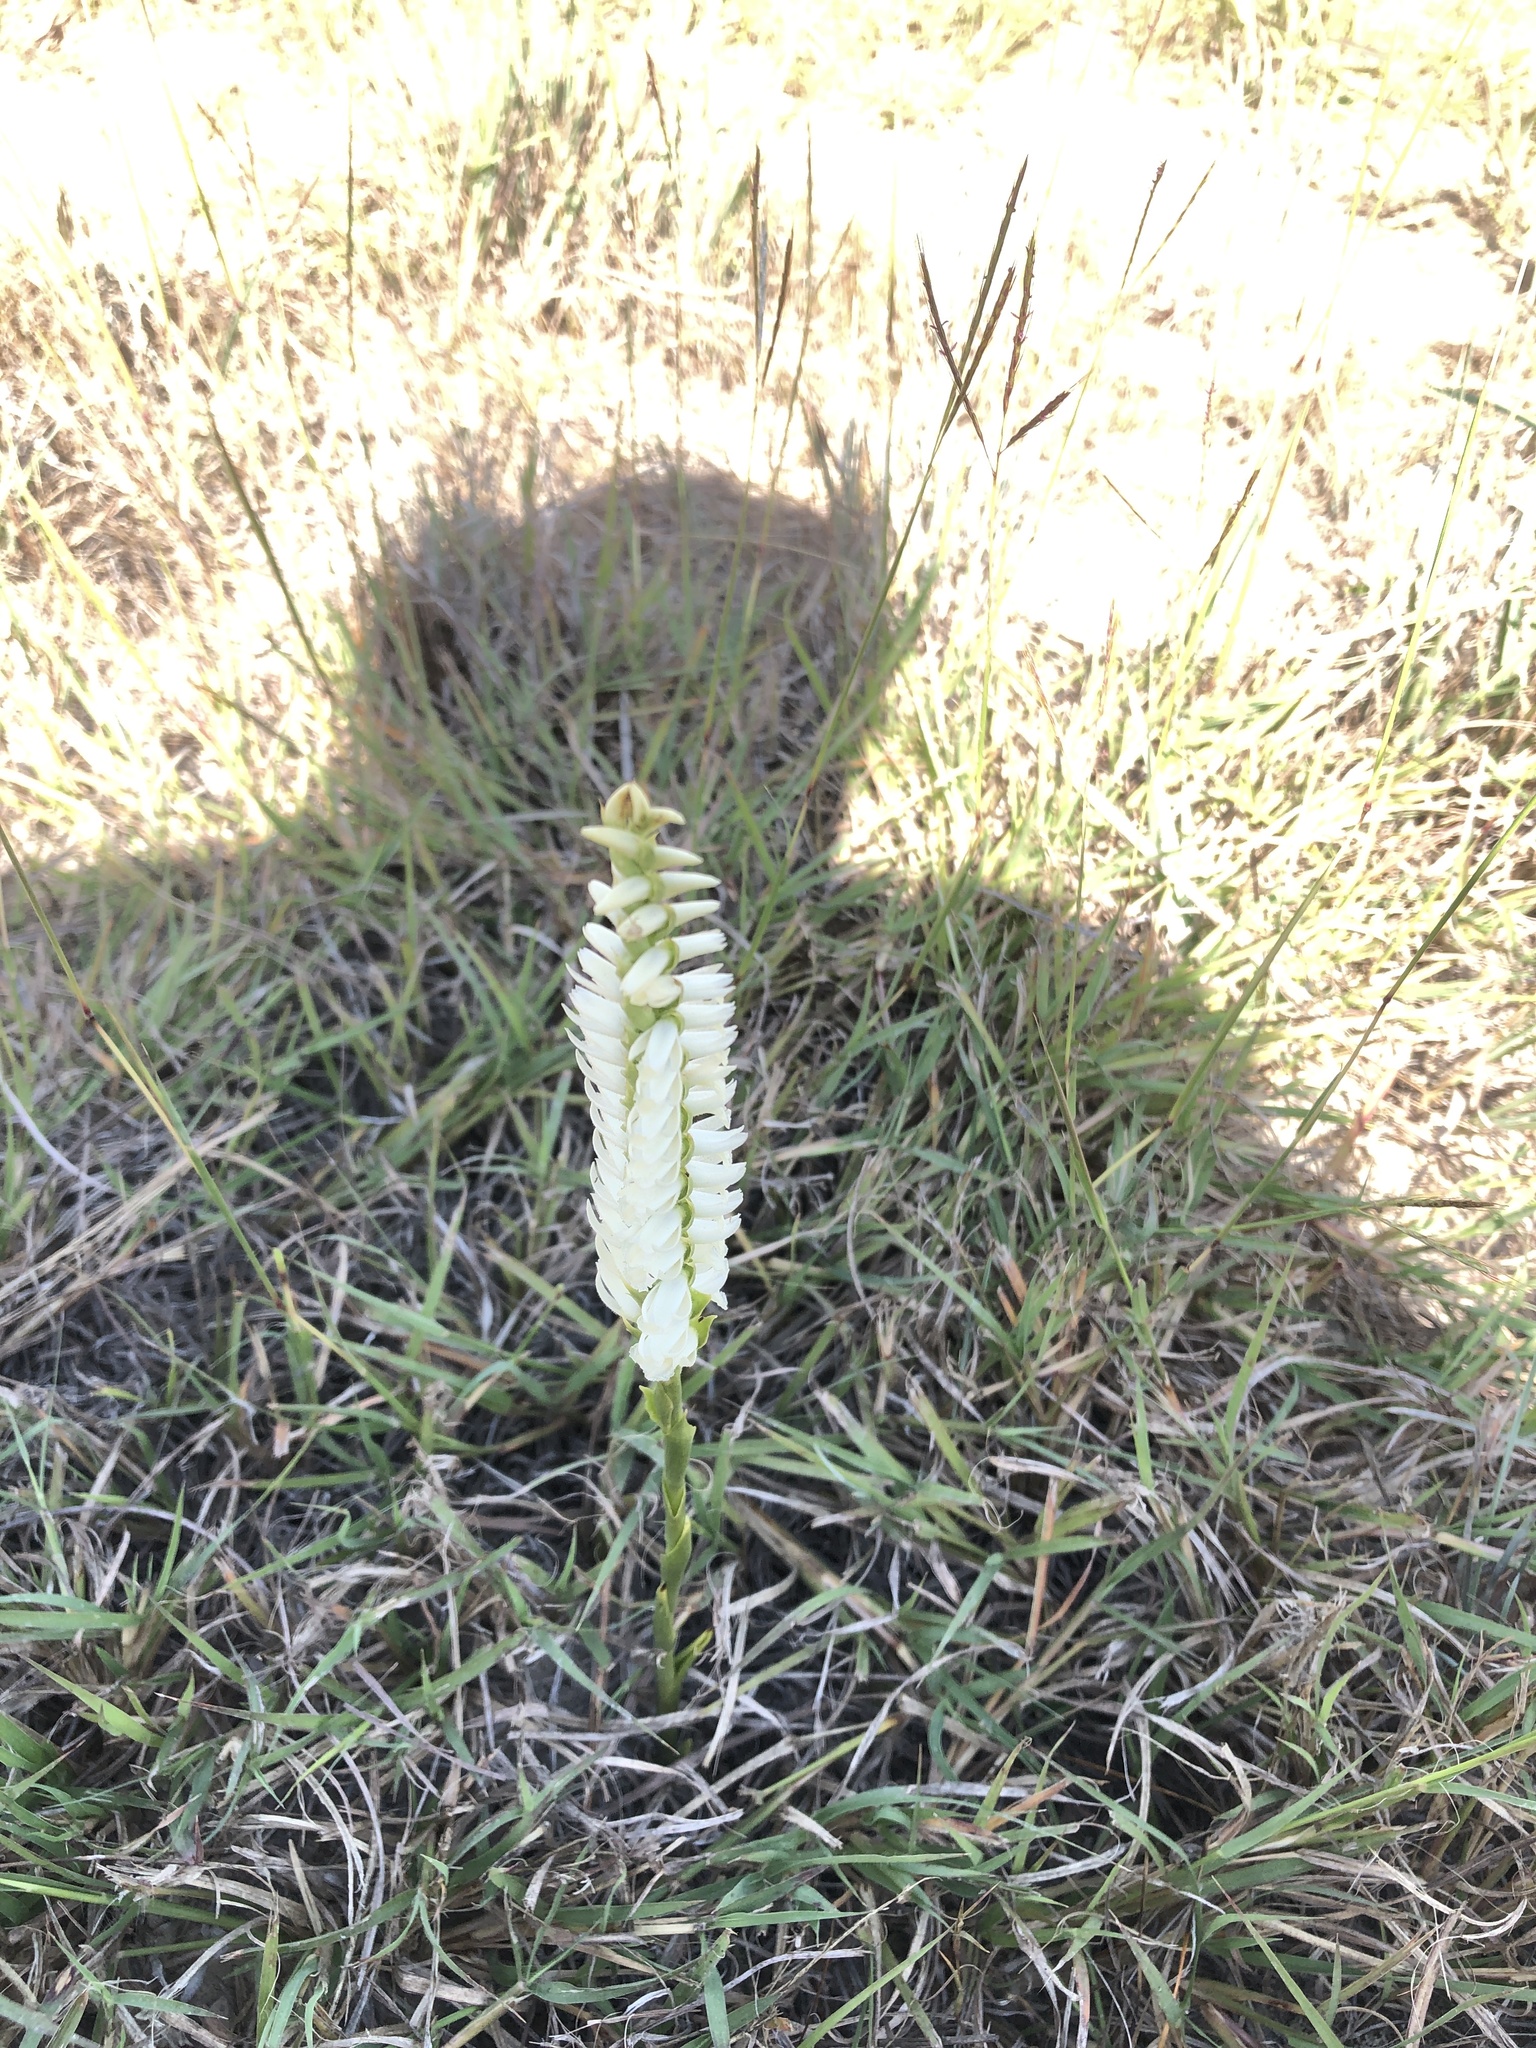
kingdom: Plantae
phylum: Tracheophyta
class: Liliopsida
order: Asparagales
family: Orchidaceae
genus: Spiranthes
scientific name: Spiranthes magnicamporum
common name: Great plains ladies'-tresses
